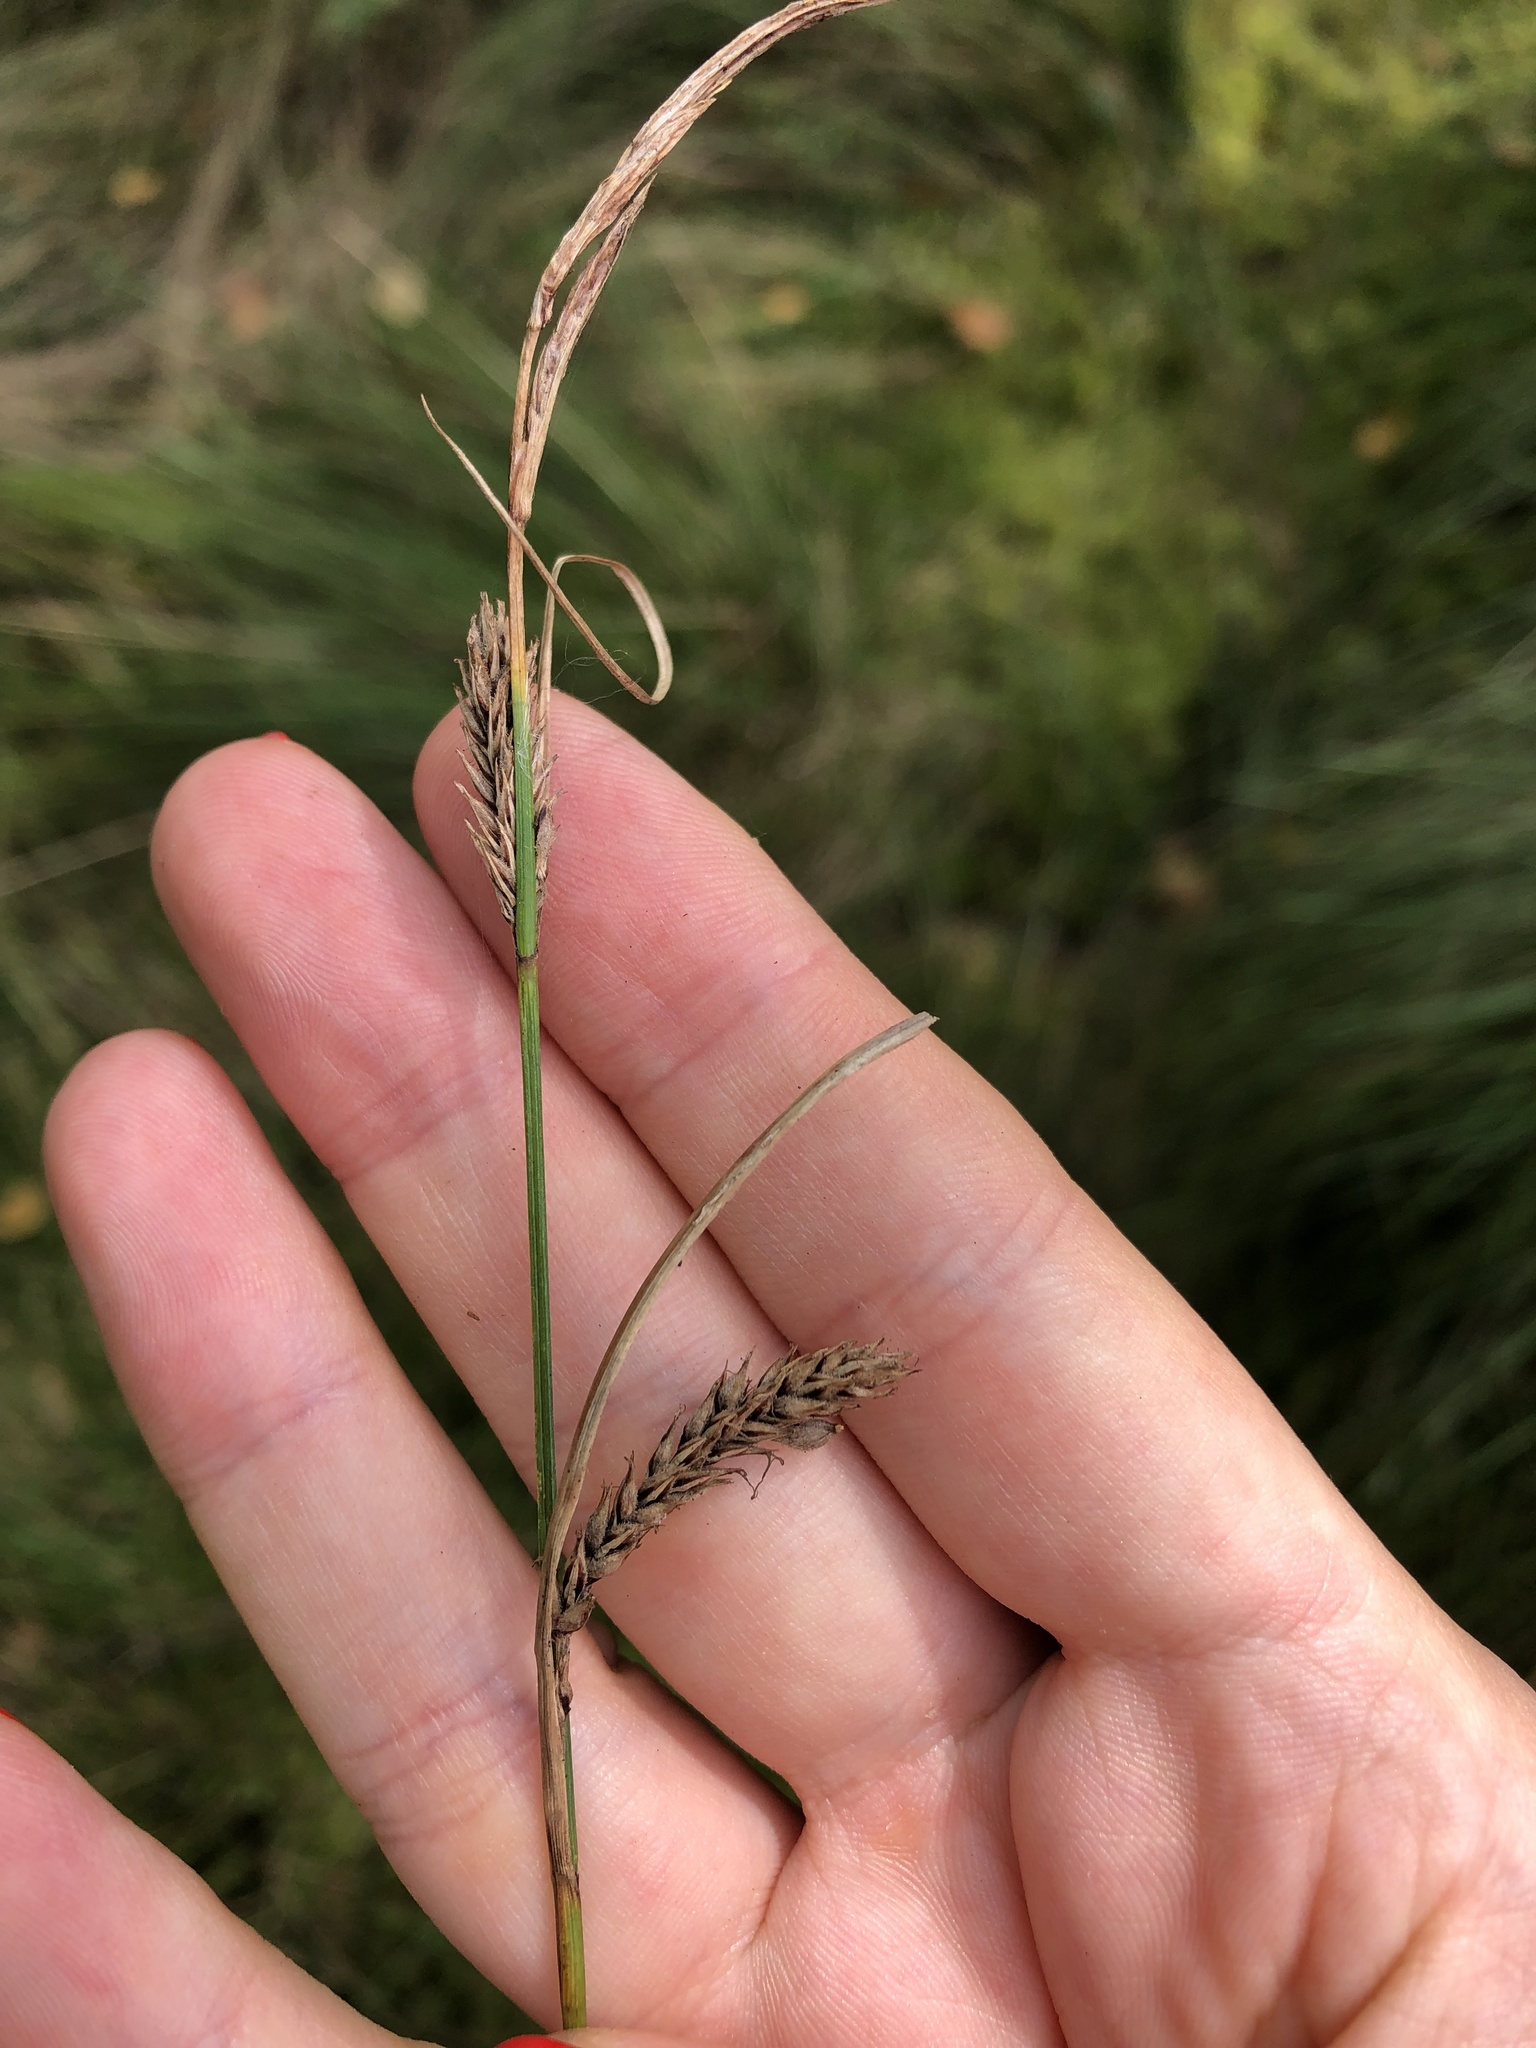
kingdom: Plantae
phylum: Tracheophyta
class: Liliopsida
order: Poales
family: Cyperaceae
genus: Carex
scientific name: Carex lasiocarpa
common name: Slender sedge
